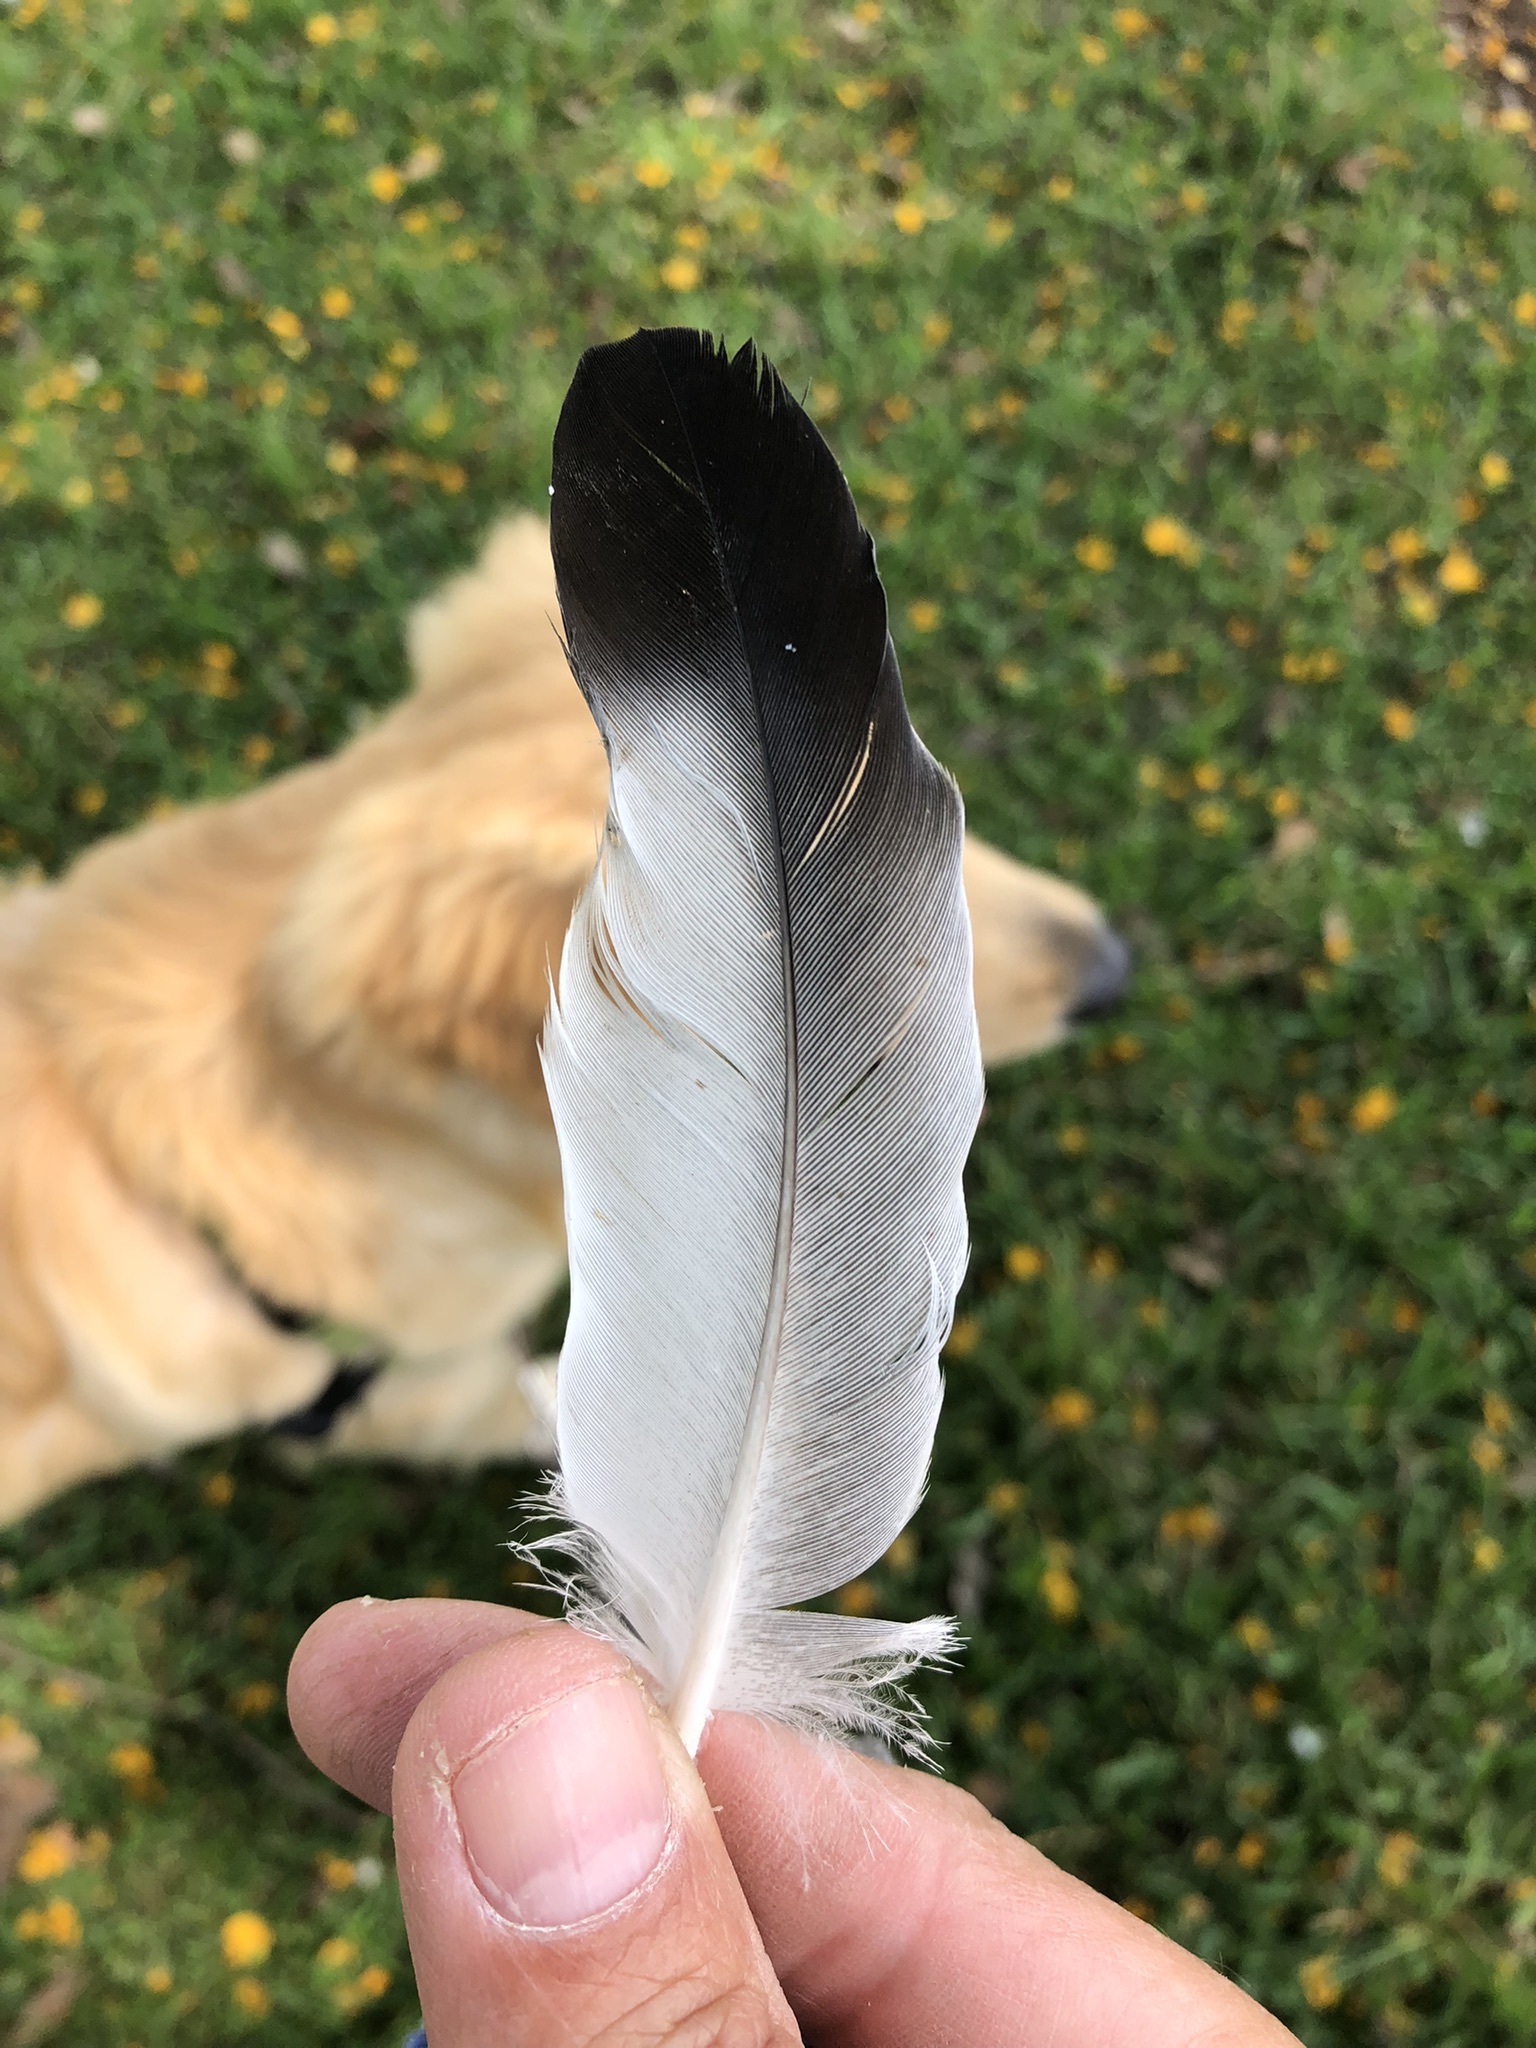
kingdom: Animalia
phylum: Chordata
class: Aves
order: Columbiformes
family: Columbidae
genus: Columba
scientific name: Columba livia
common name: Rock pigeon
